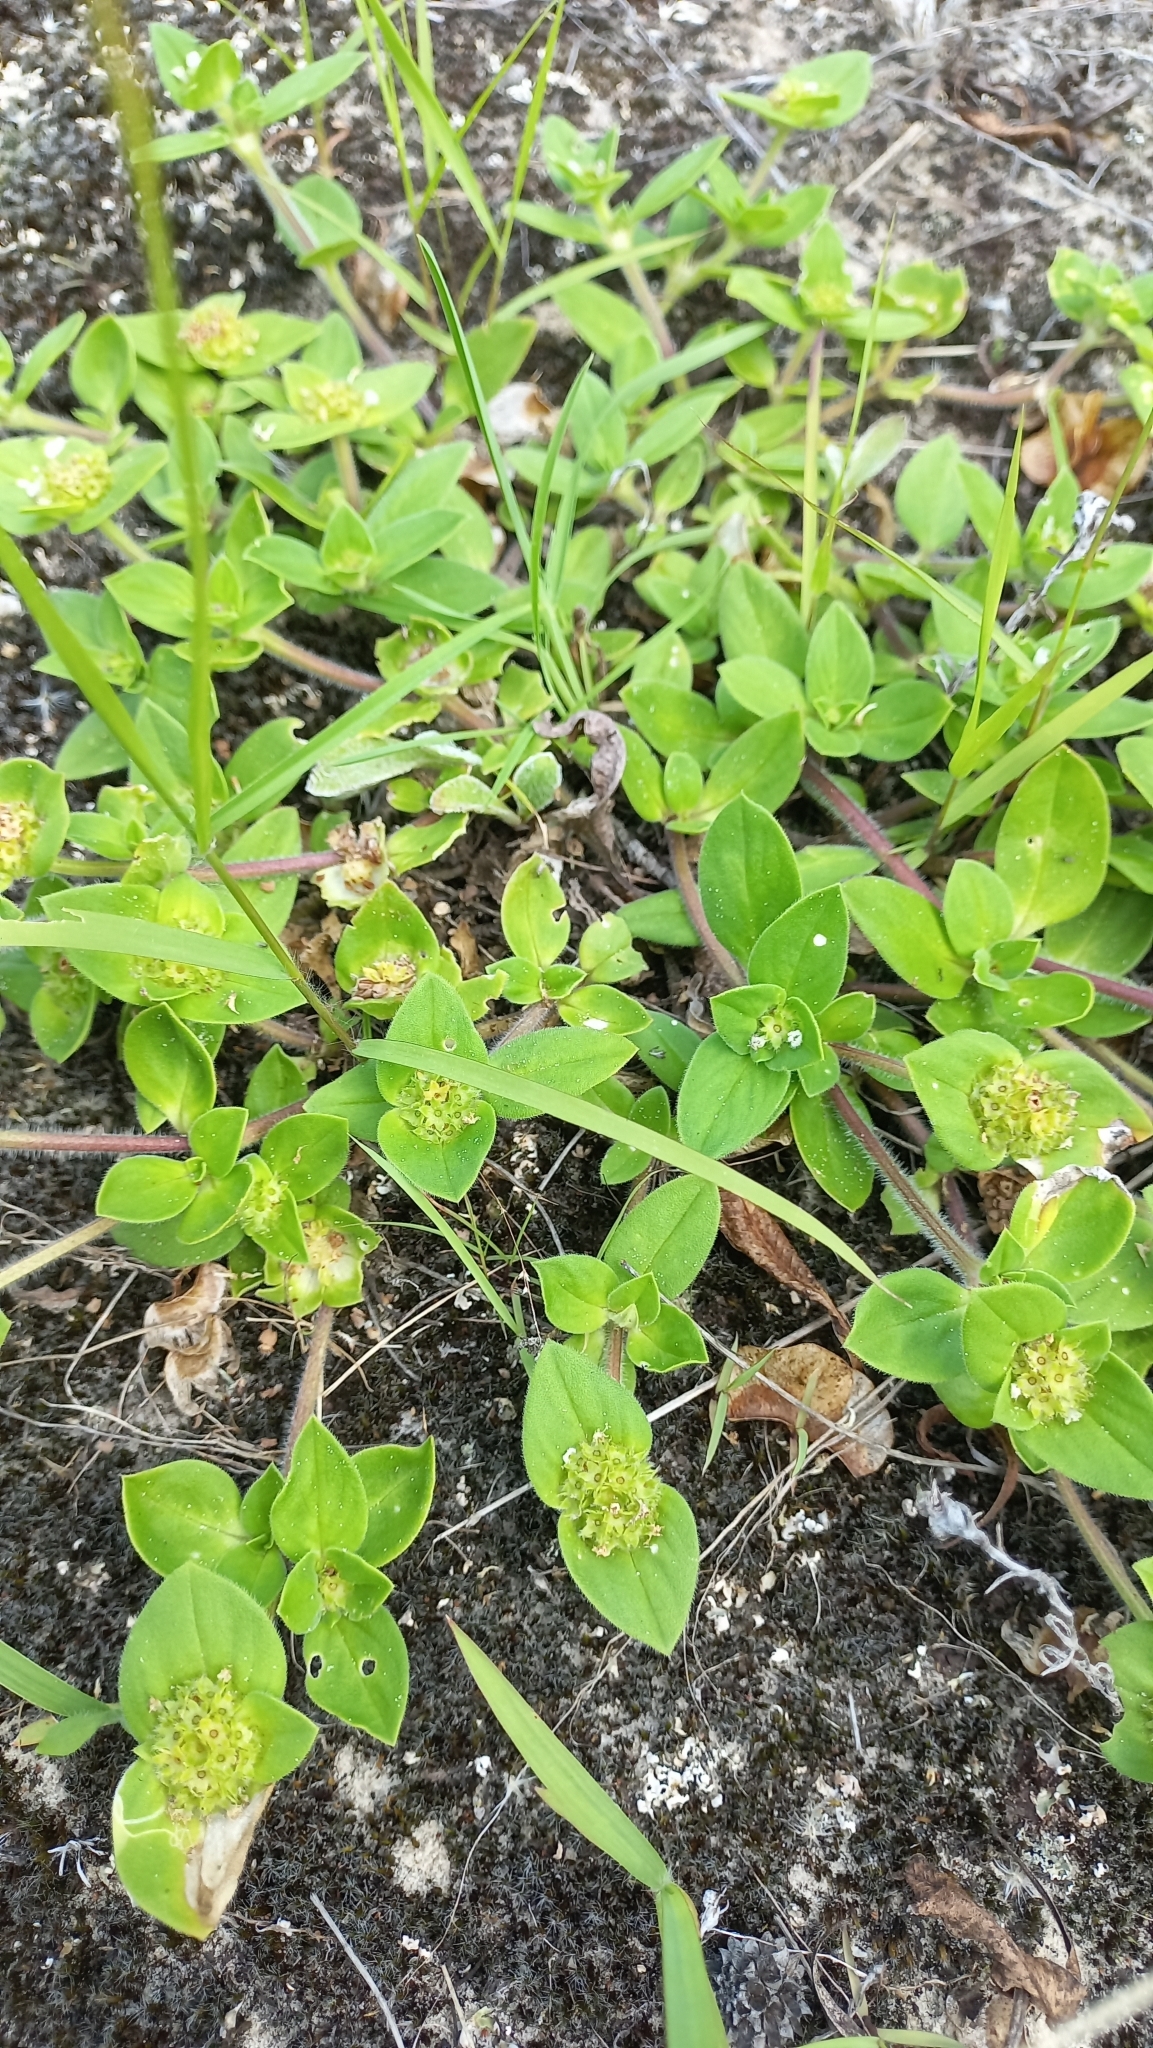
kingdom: Plantae
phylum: Tracheophyta
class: Magnoliopsida
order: Gentianales
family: Rubiaceae
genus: Richardia
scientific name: Richardia brasiliensis
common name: Tropical mexican clover
